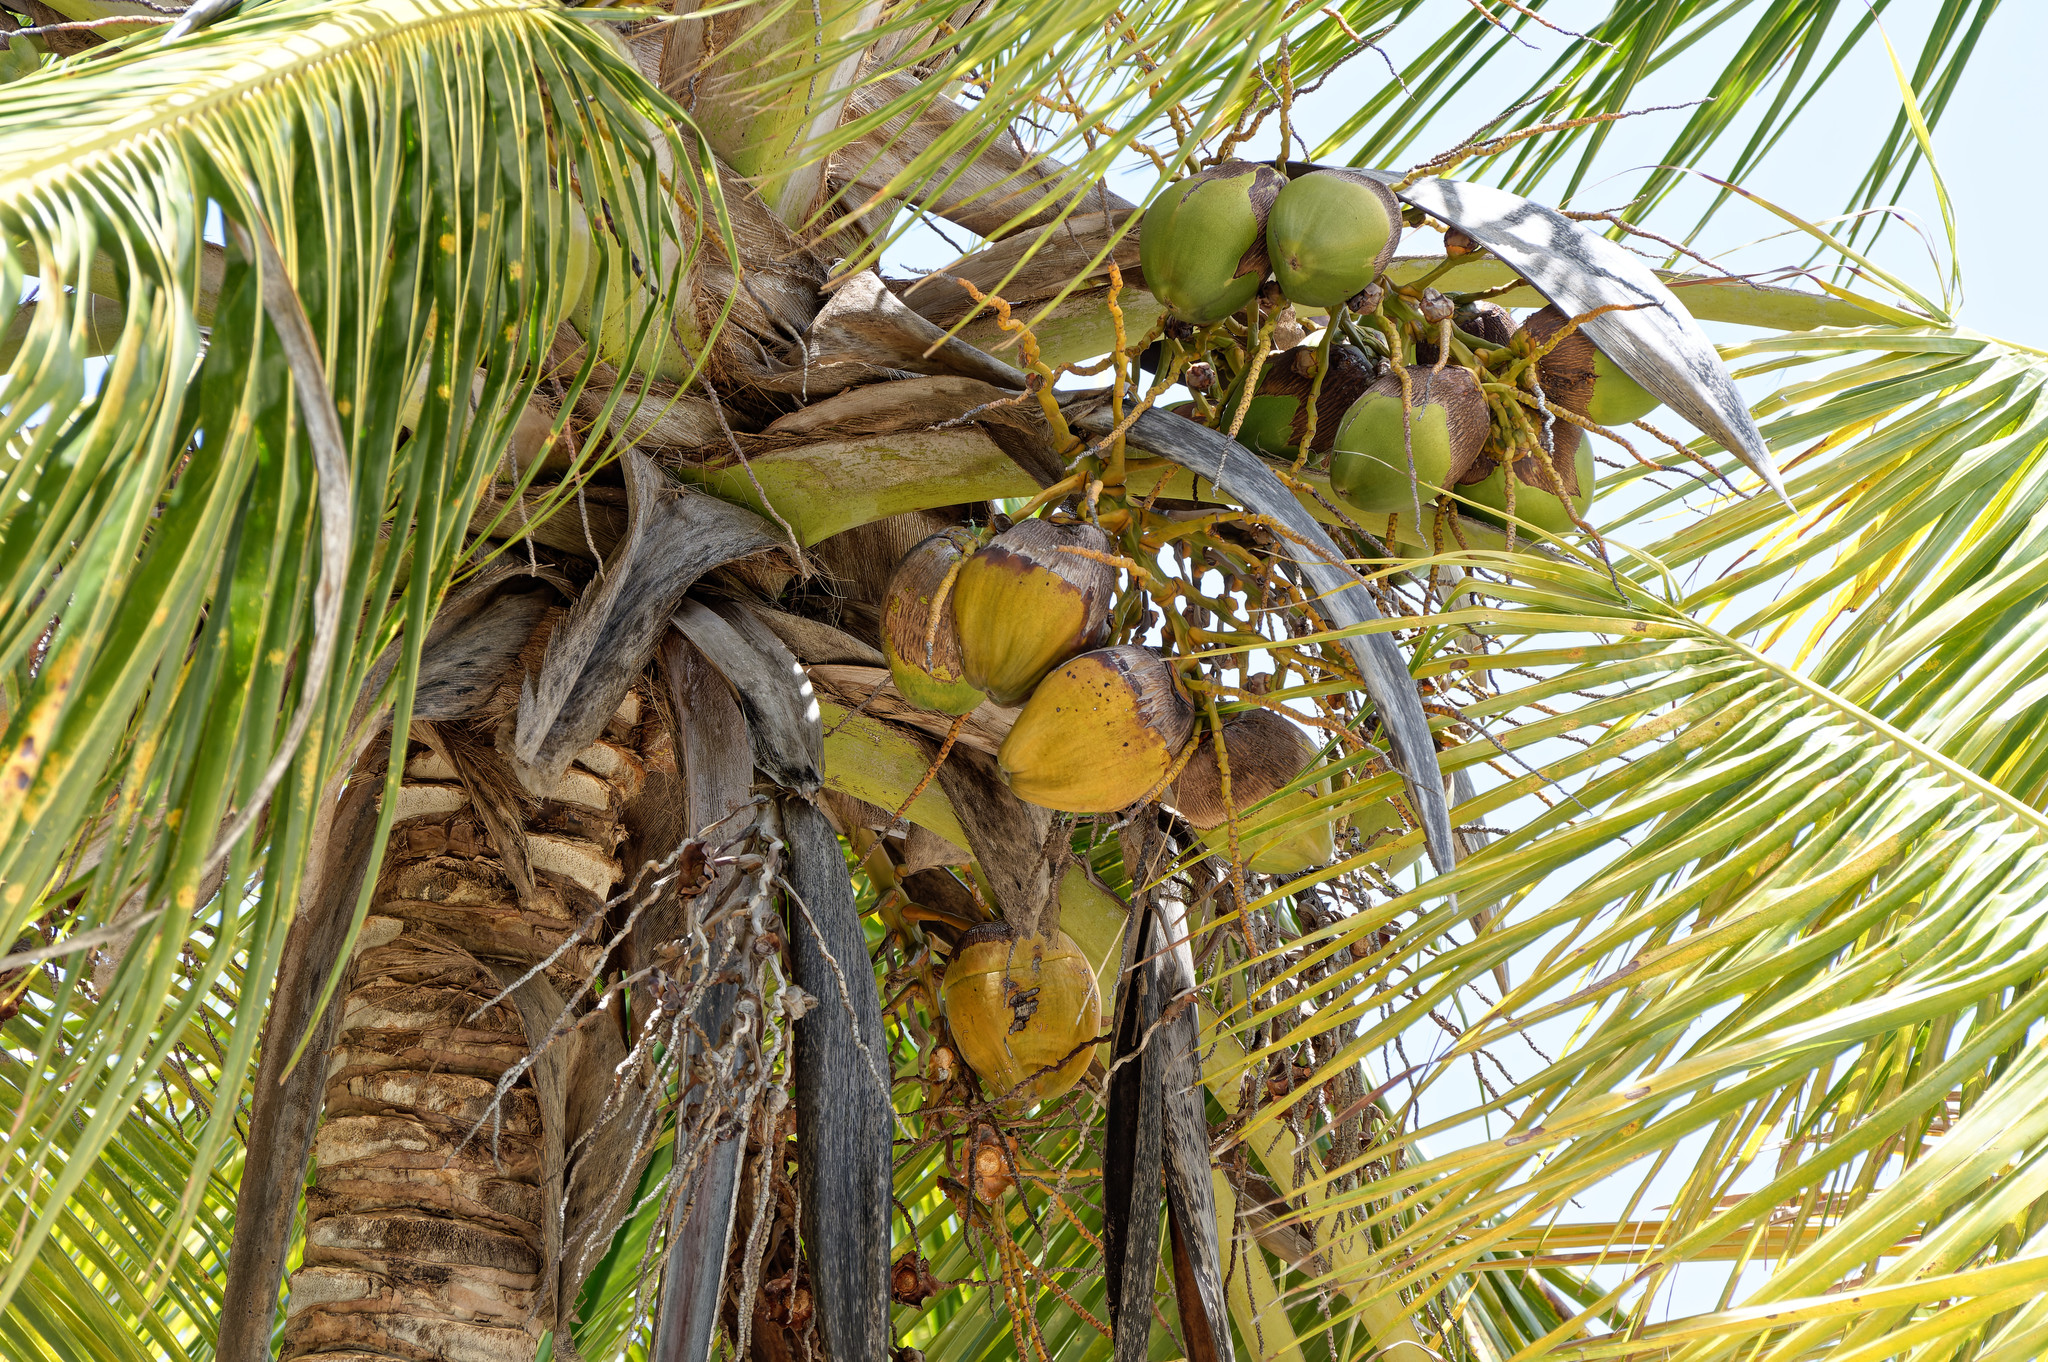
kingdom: Plantae
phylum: Tracheophyta
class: Liliopsida
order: Arecales
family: Arecaceae
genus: Cocos
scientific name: Cocos nucifera
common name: Coconut palm
